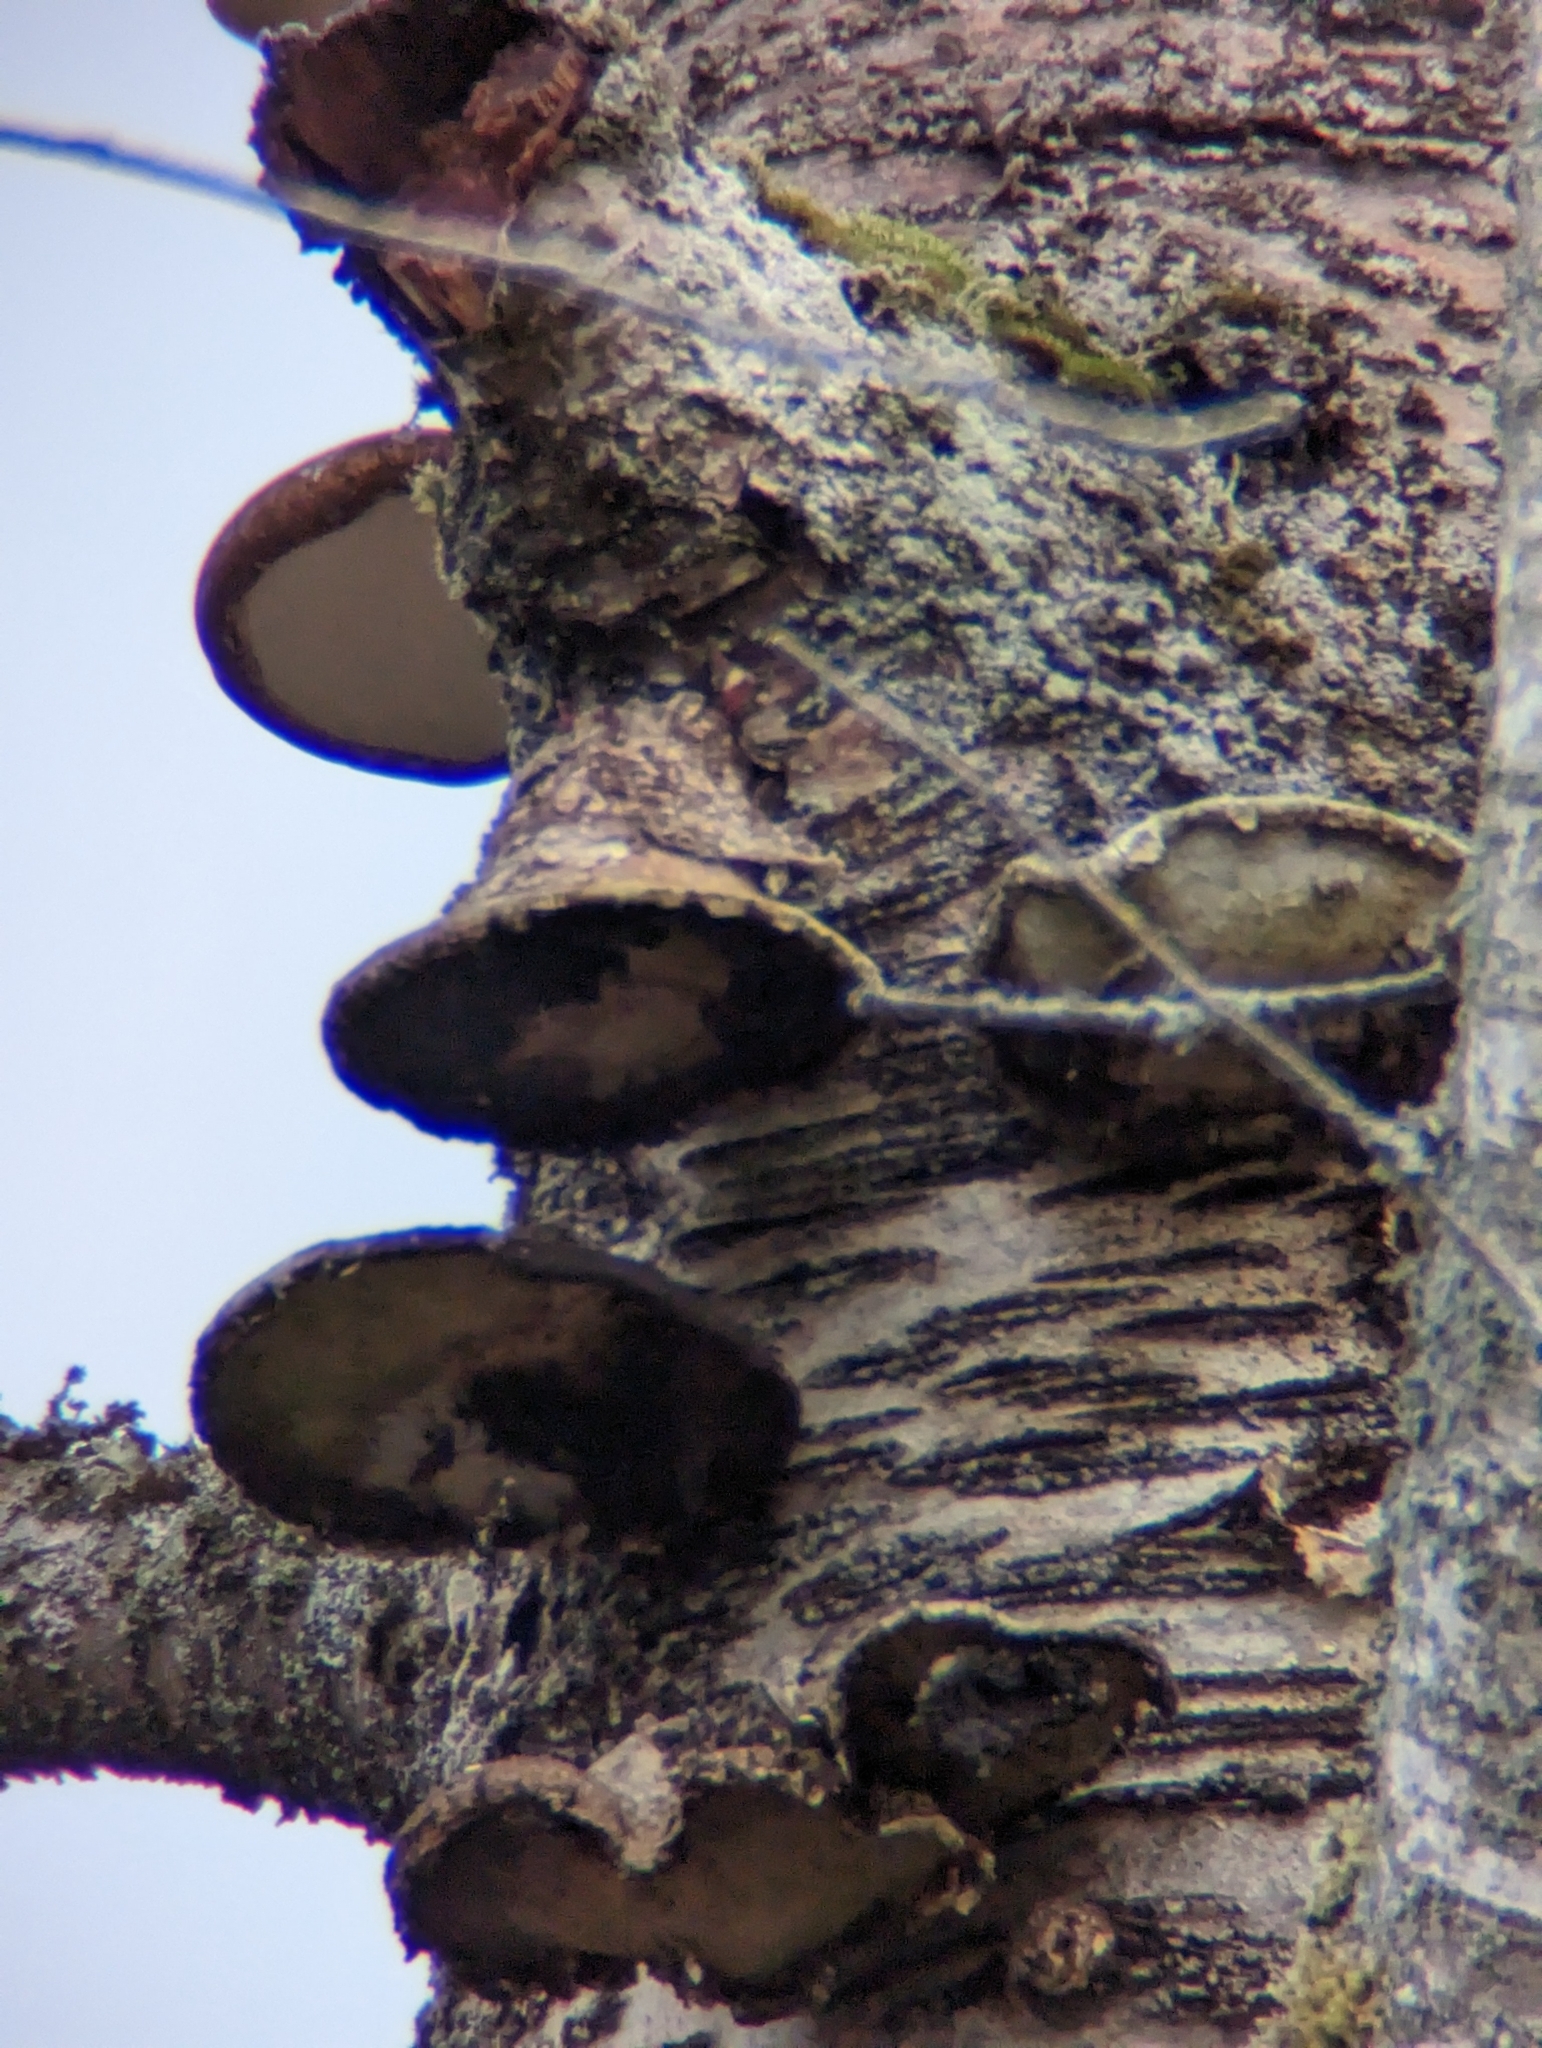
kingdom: Fungi
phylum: Basidiomycota
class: Agaricomycetes
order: Polyporales
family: Fomitopsidaceae
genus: Fomitopsis
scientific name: Fomitopsis betulina
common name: Birch polypore
